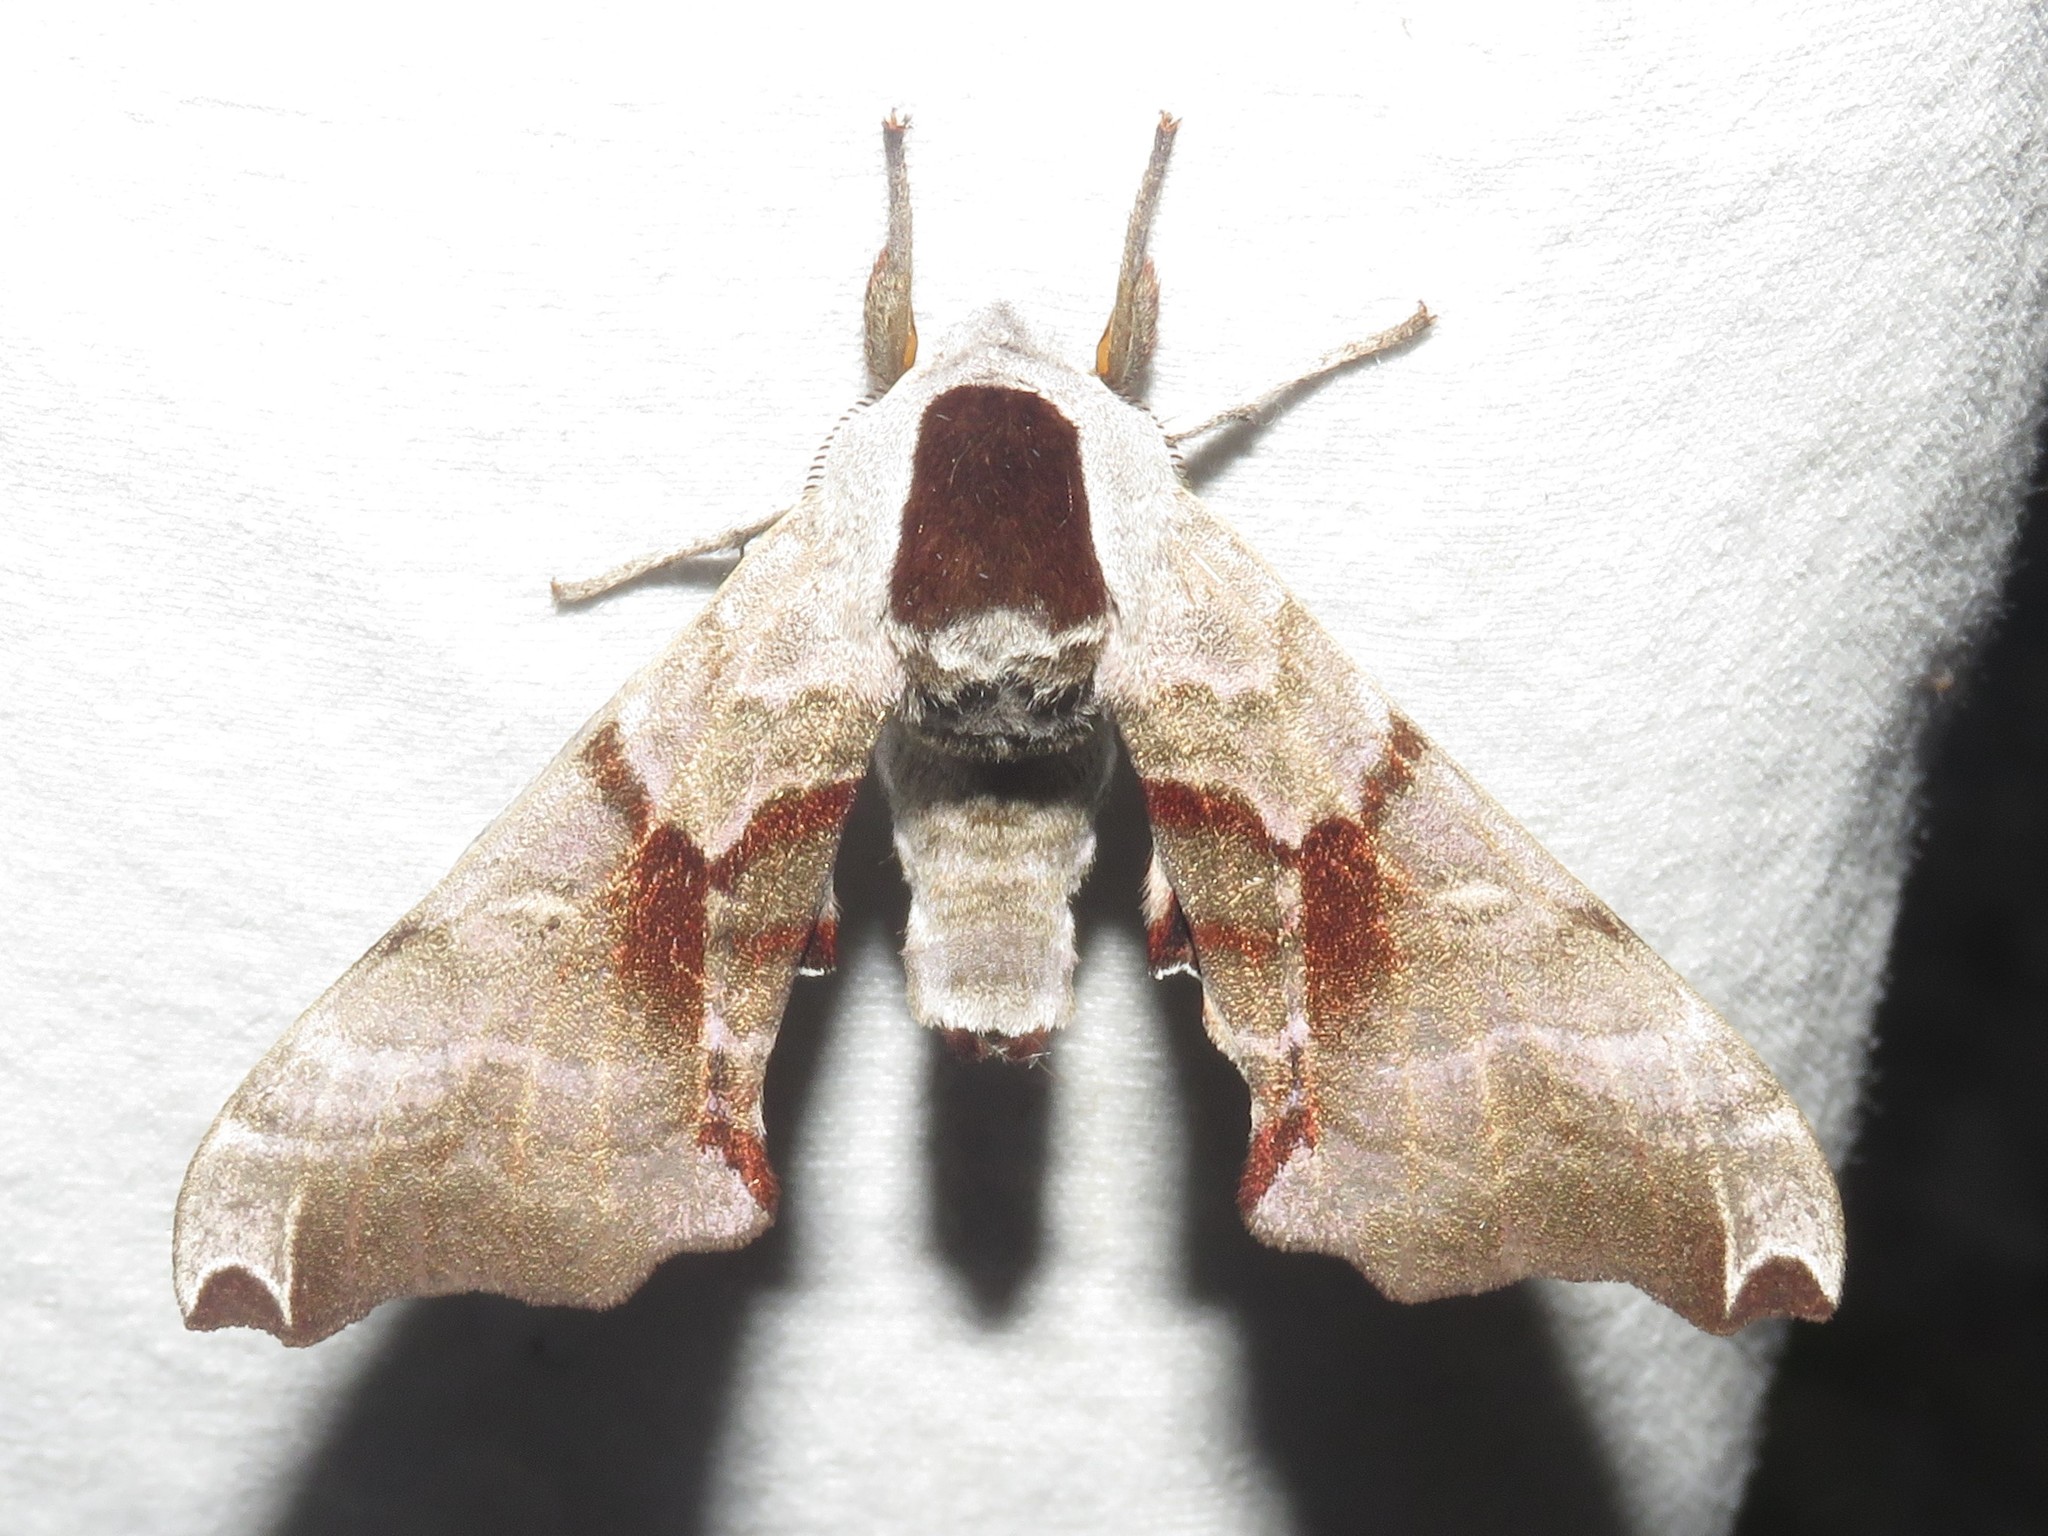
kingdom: Animalia
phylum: Arthropoda
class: Insecta
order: Lepidoptera
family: Sphingidae
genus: Smerinthus
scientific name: Smerinthus jamaicensis
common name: Twin spotted sphinx
